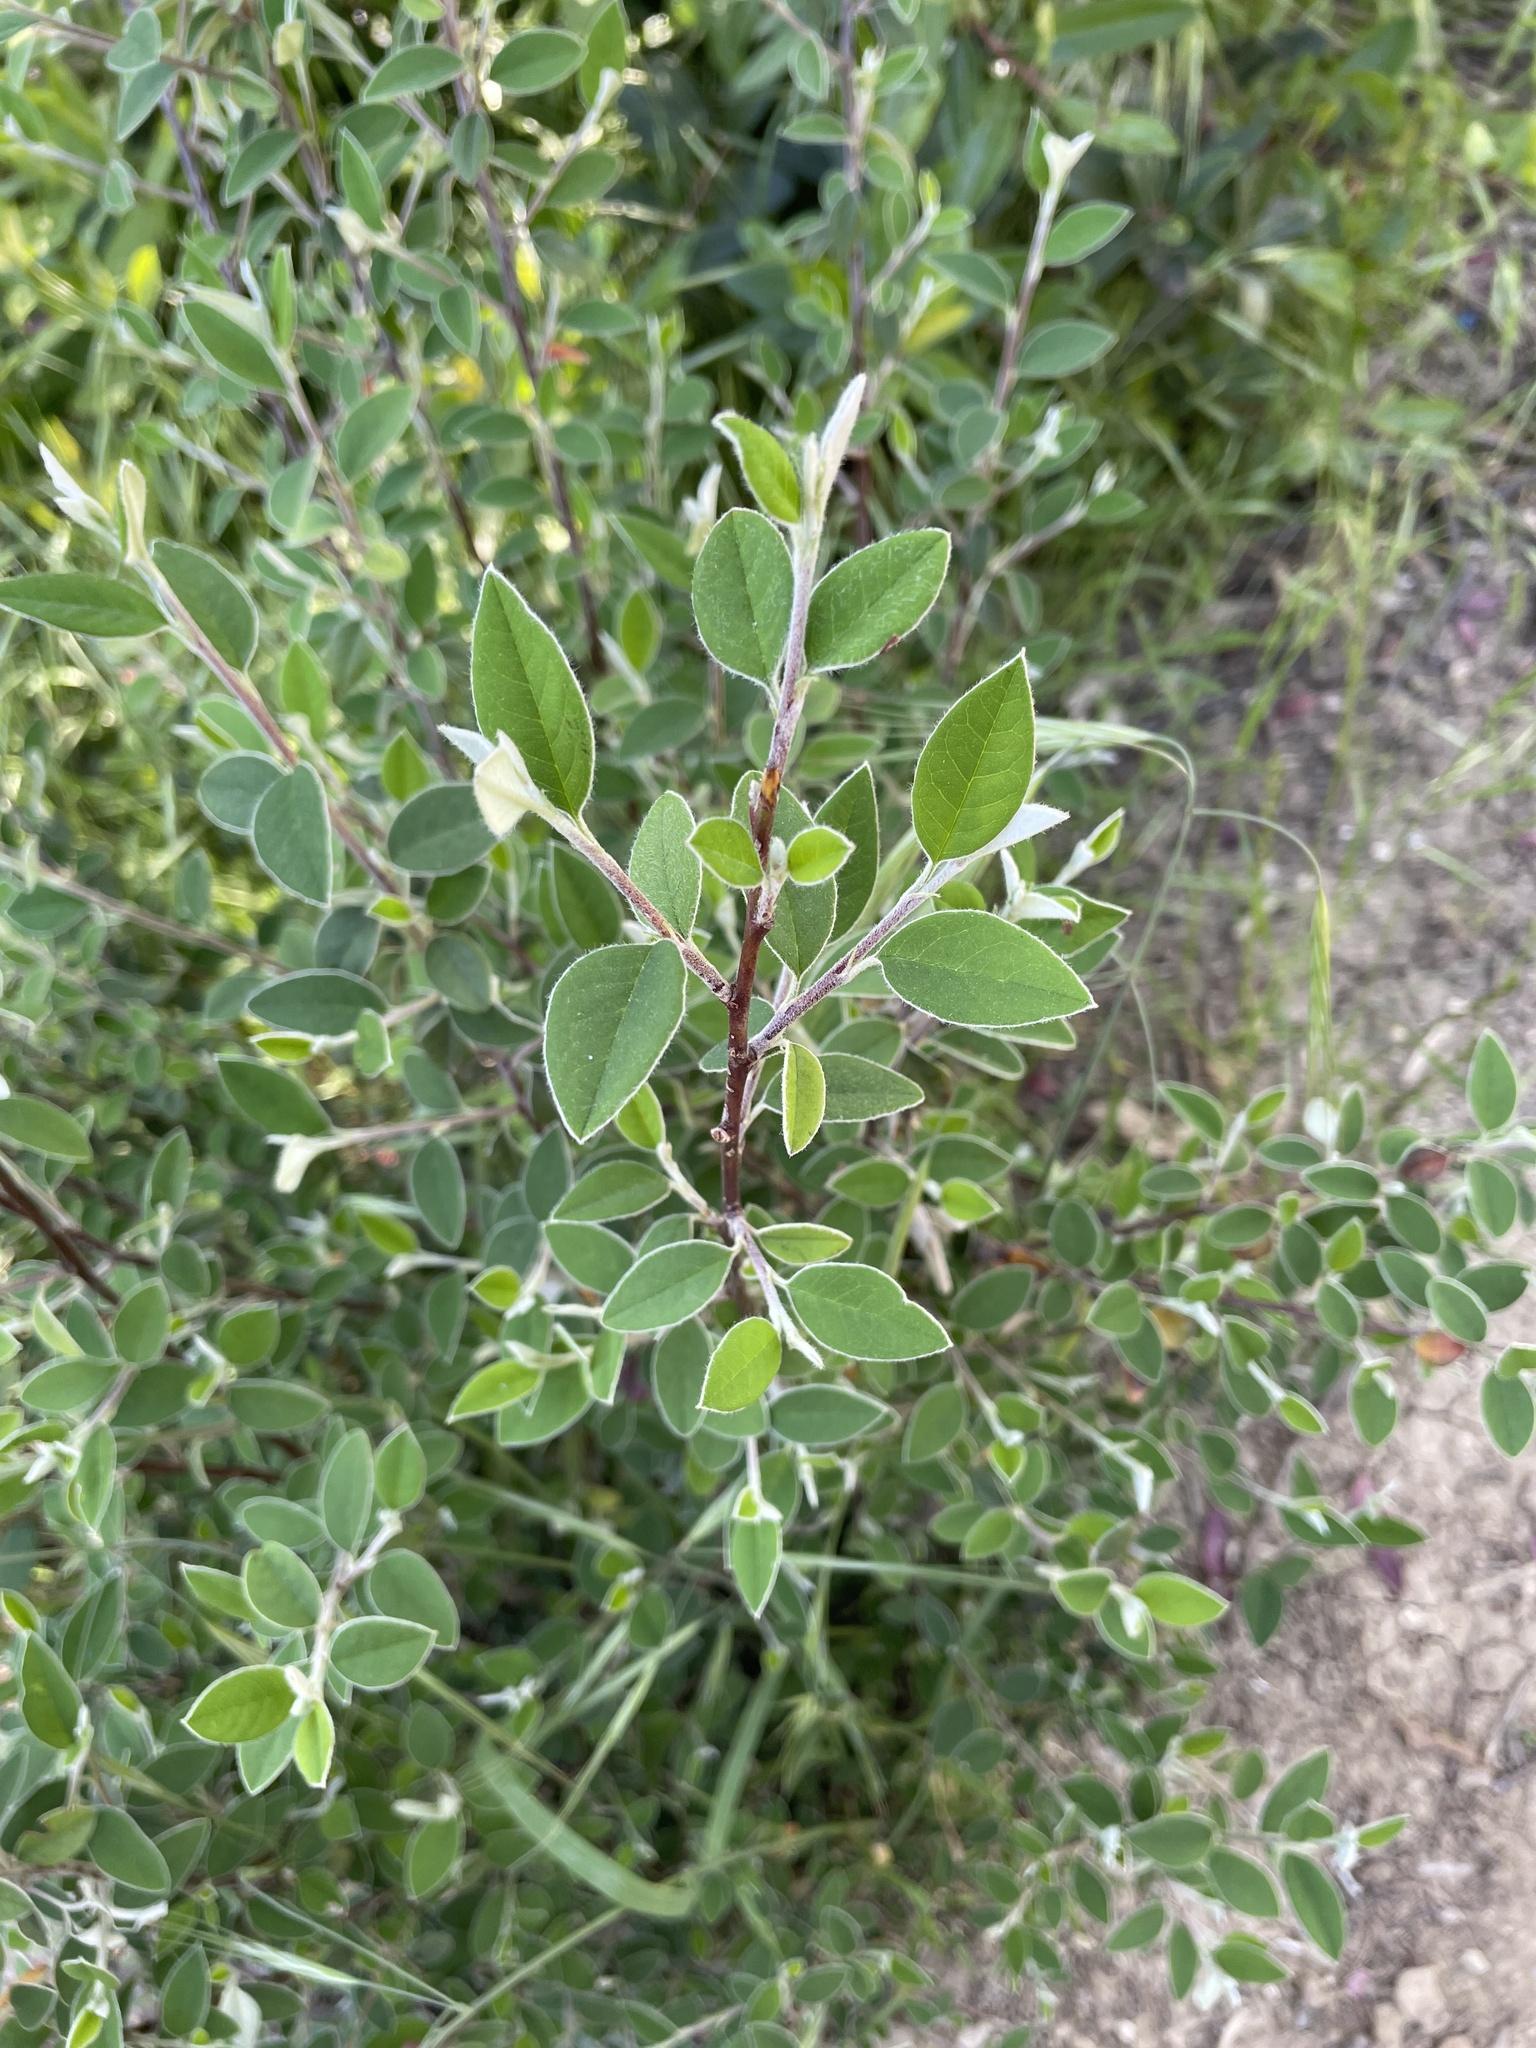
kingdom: Plantae
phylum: Tracheophyta
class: Magnoliopsida
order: Rosales
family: Rosaceae
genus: Cotoneaster
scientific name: Cotoneaster pannosus
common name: Silverleaf cotoneaster
